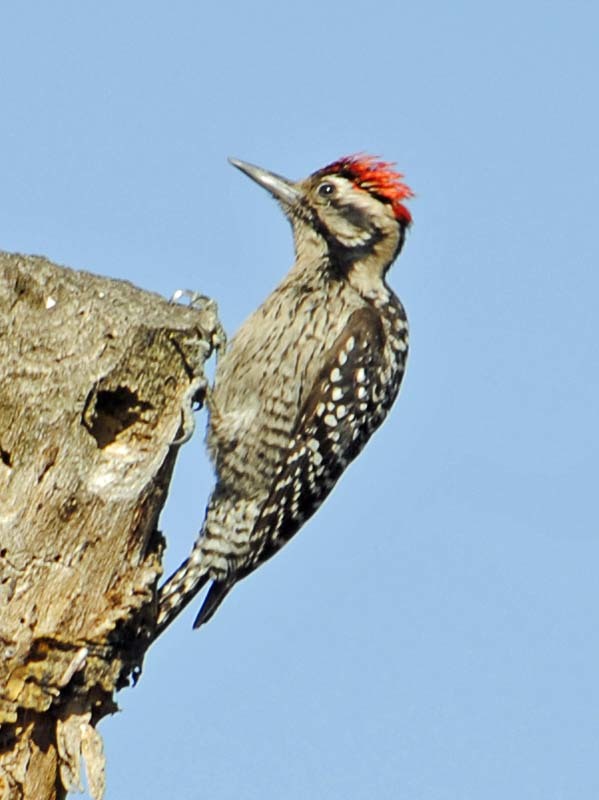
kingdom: Animalia
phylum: Chordata
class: Aves
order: Piciformes
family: Picidae
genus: Dryobates
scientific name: Dryobates scalaris
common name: Ladder-backed woodpecker
